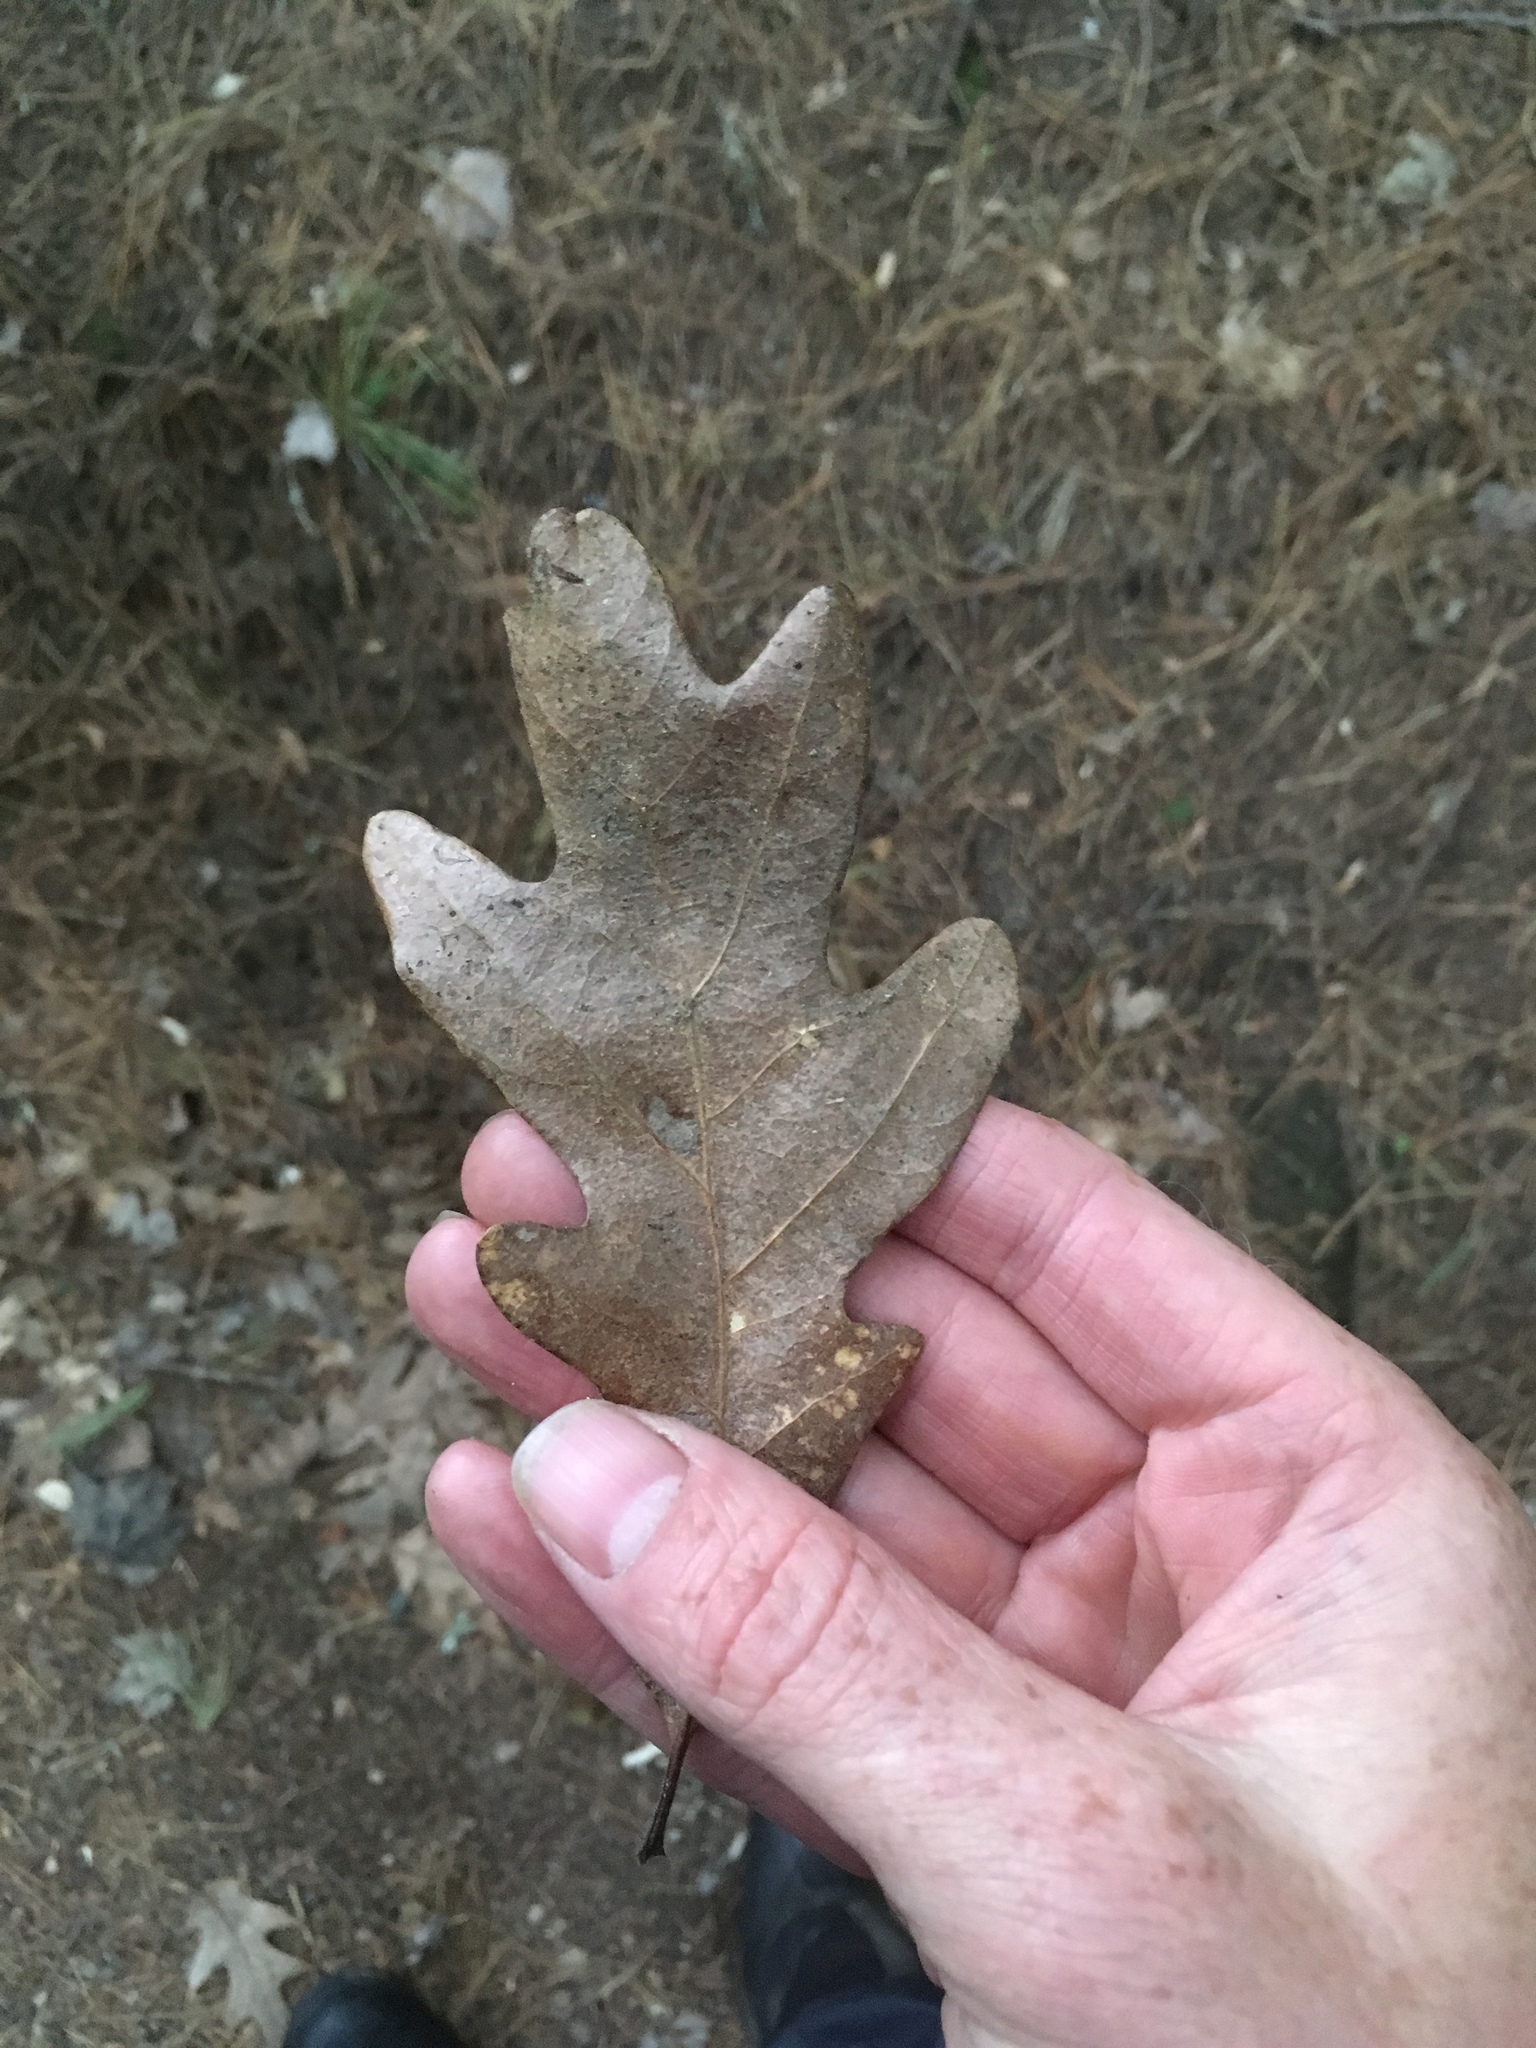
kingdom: Plantae
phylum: Tracheophyta
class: Magnoliopsida
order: Fagales
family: Fagaceae
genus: Quercus
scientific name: Quercus alba
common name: White oak
